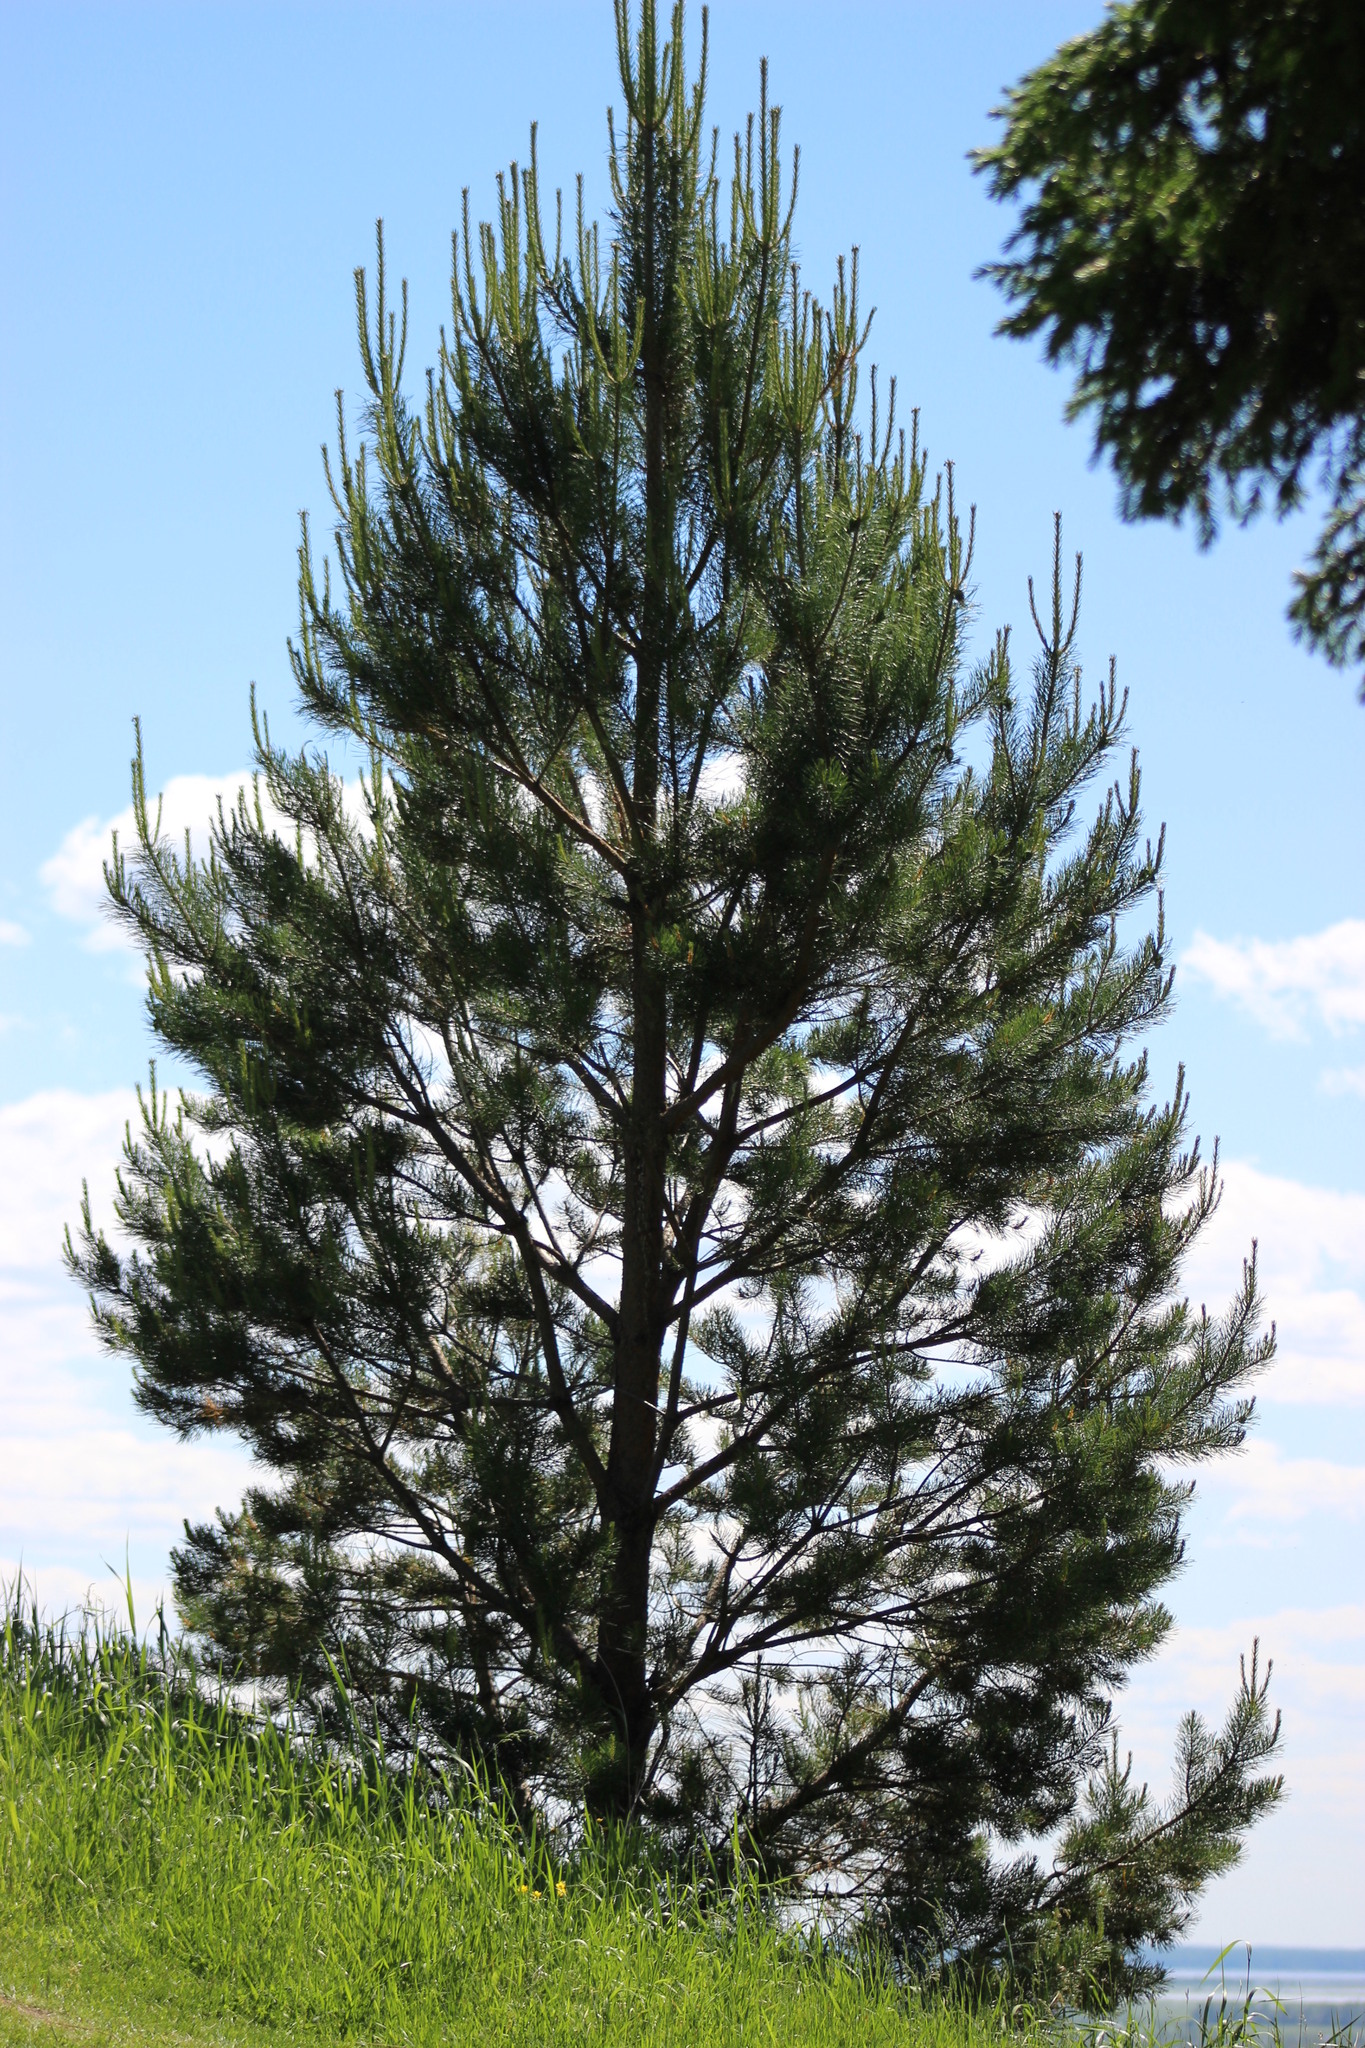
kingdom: Plantae
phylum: Tracheophyta
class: Pinopsida
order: Pinales
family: Pinaceae
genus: Pinus
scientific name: Pinus sylvestris
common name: Scots pine
